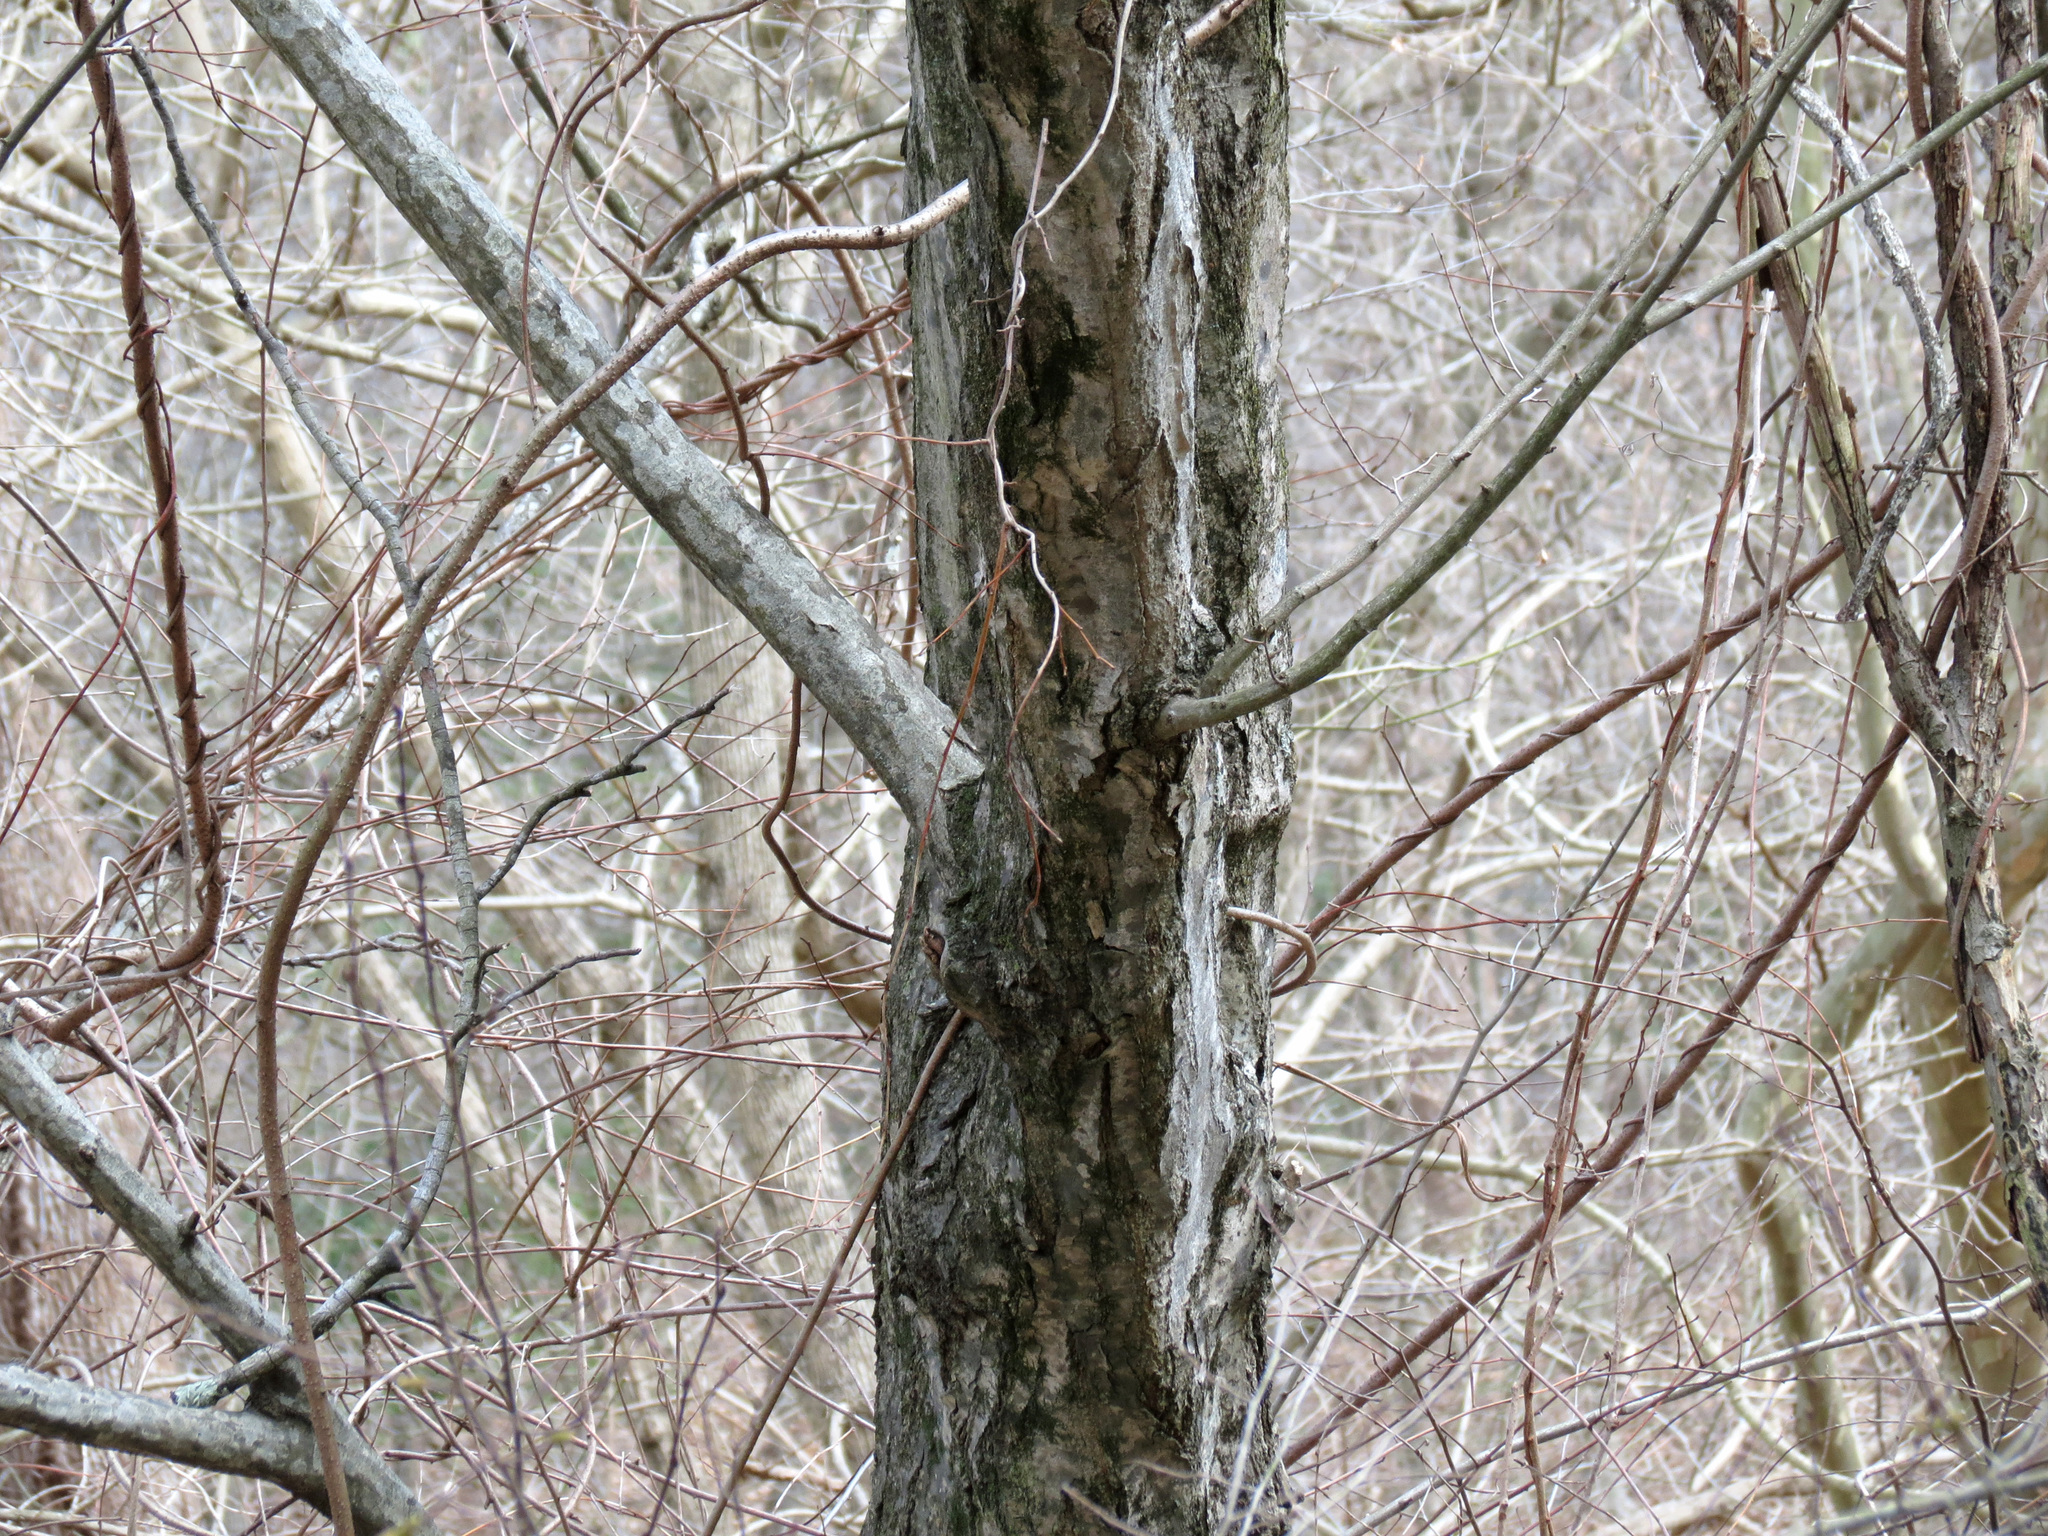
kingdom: Plantae
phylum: Tracheophyta
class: Magnoliopsida
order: Fagales
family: Betulaceae
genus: Carpinus
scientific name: Carpinus caroliniana
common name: American hornbeam
